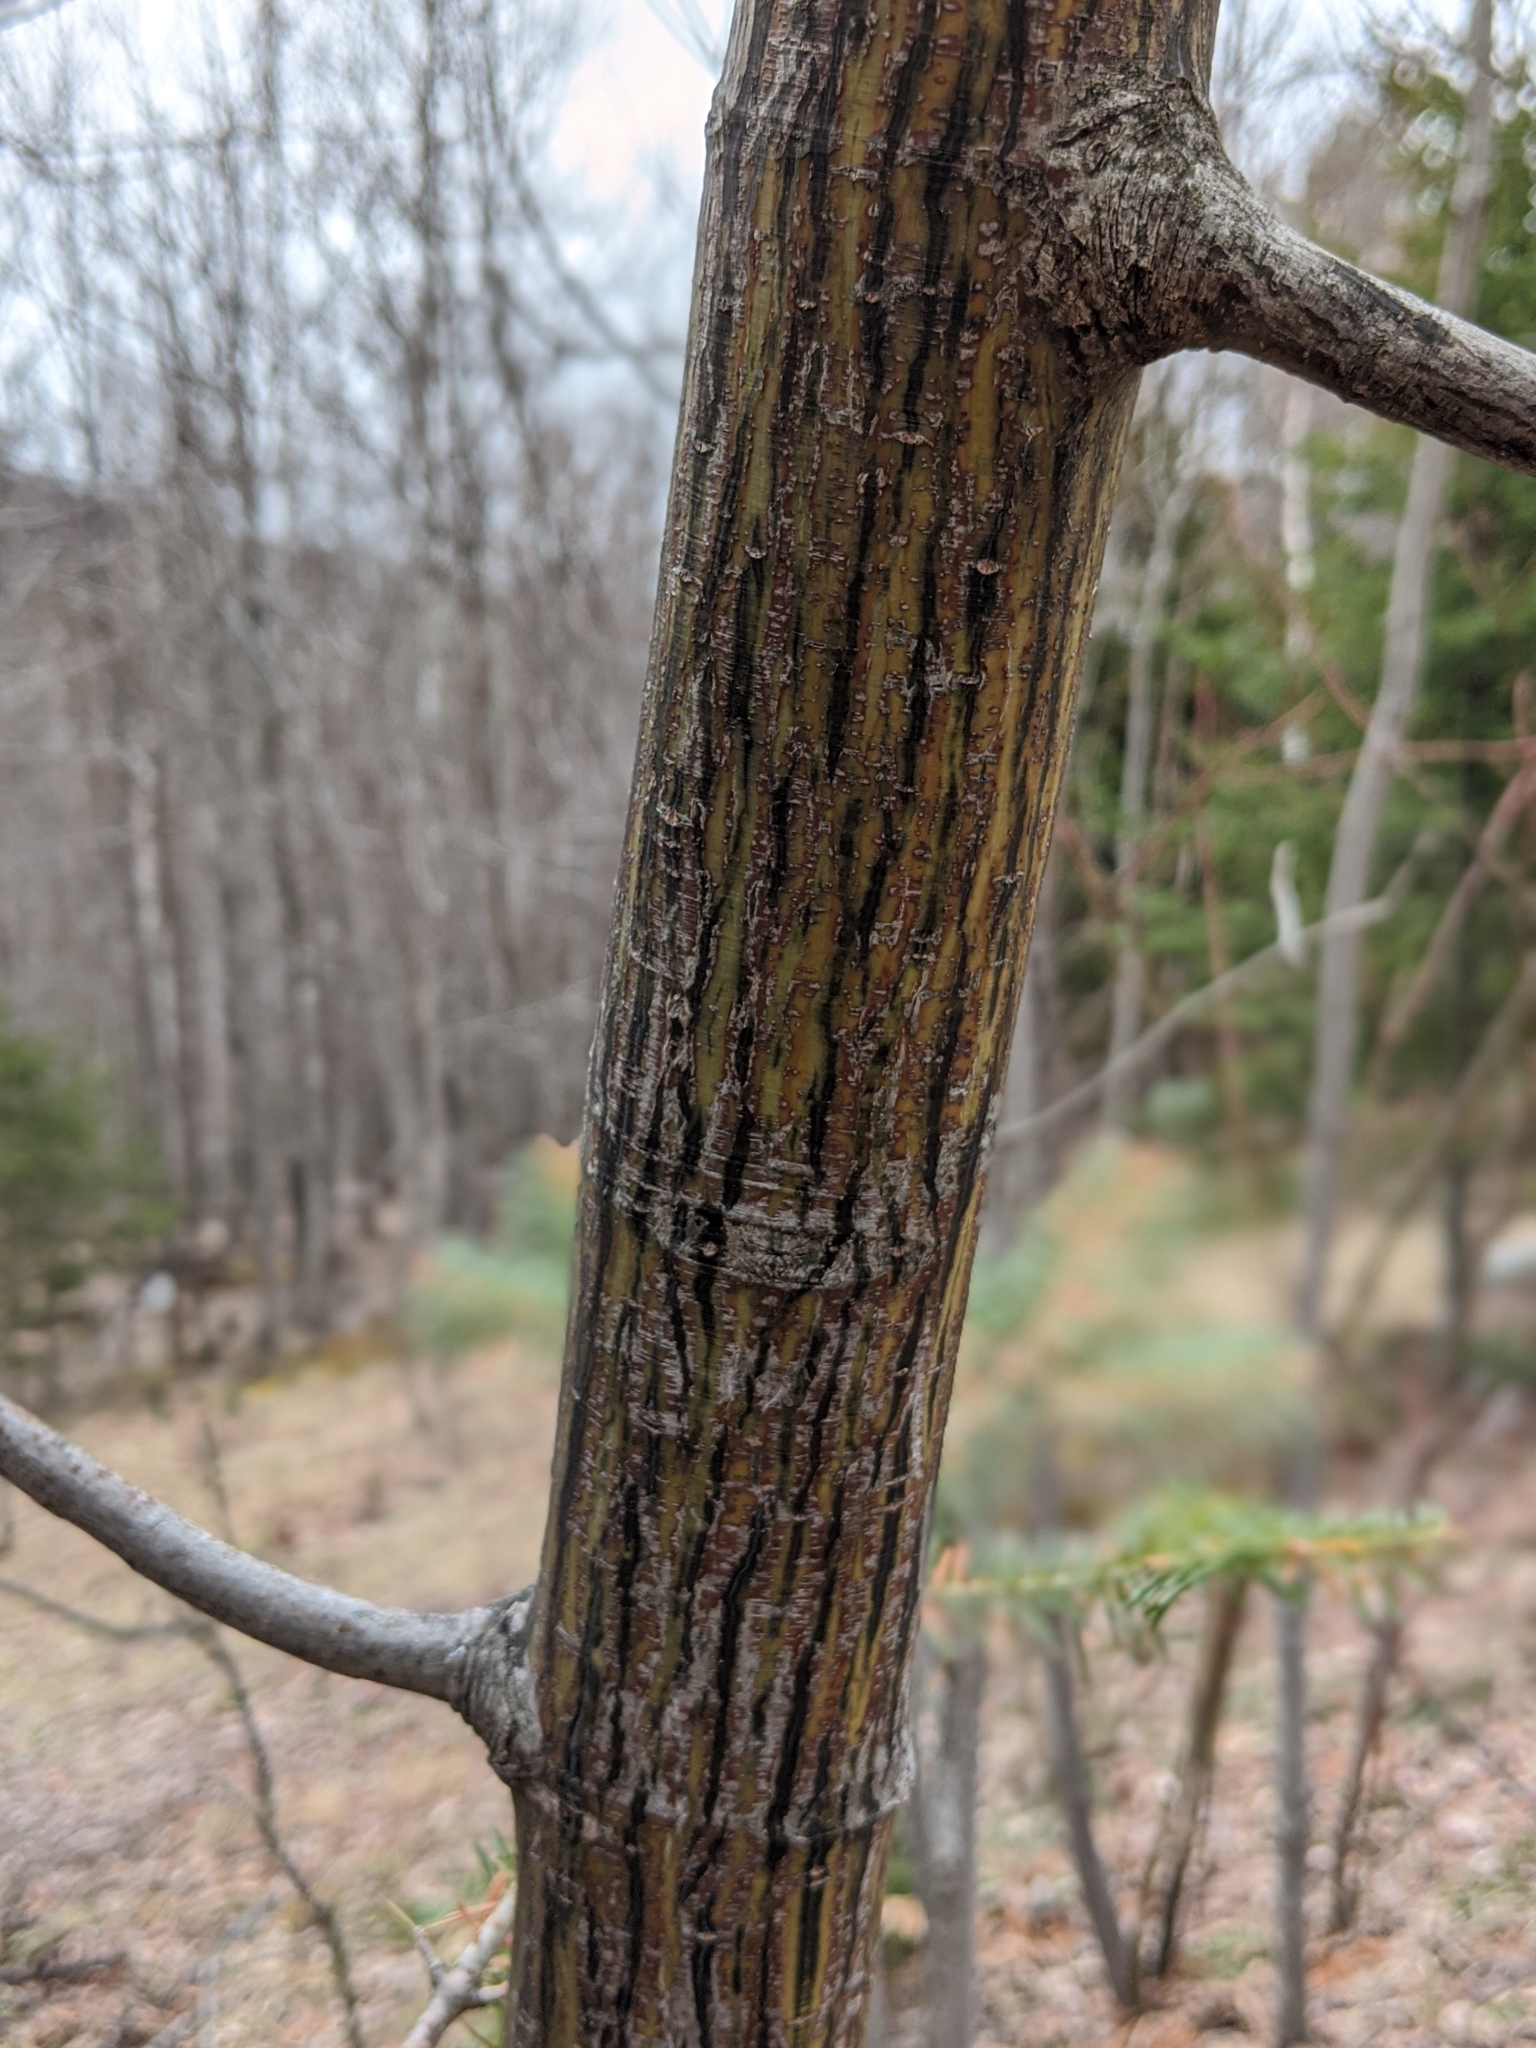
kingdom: Plantae
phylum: Tracheophyta
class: Magnoliopsida
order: Sapindales
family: Sapindaceae
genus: Acer
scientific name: Acer pensylvanicum
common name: Moosewood
